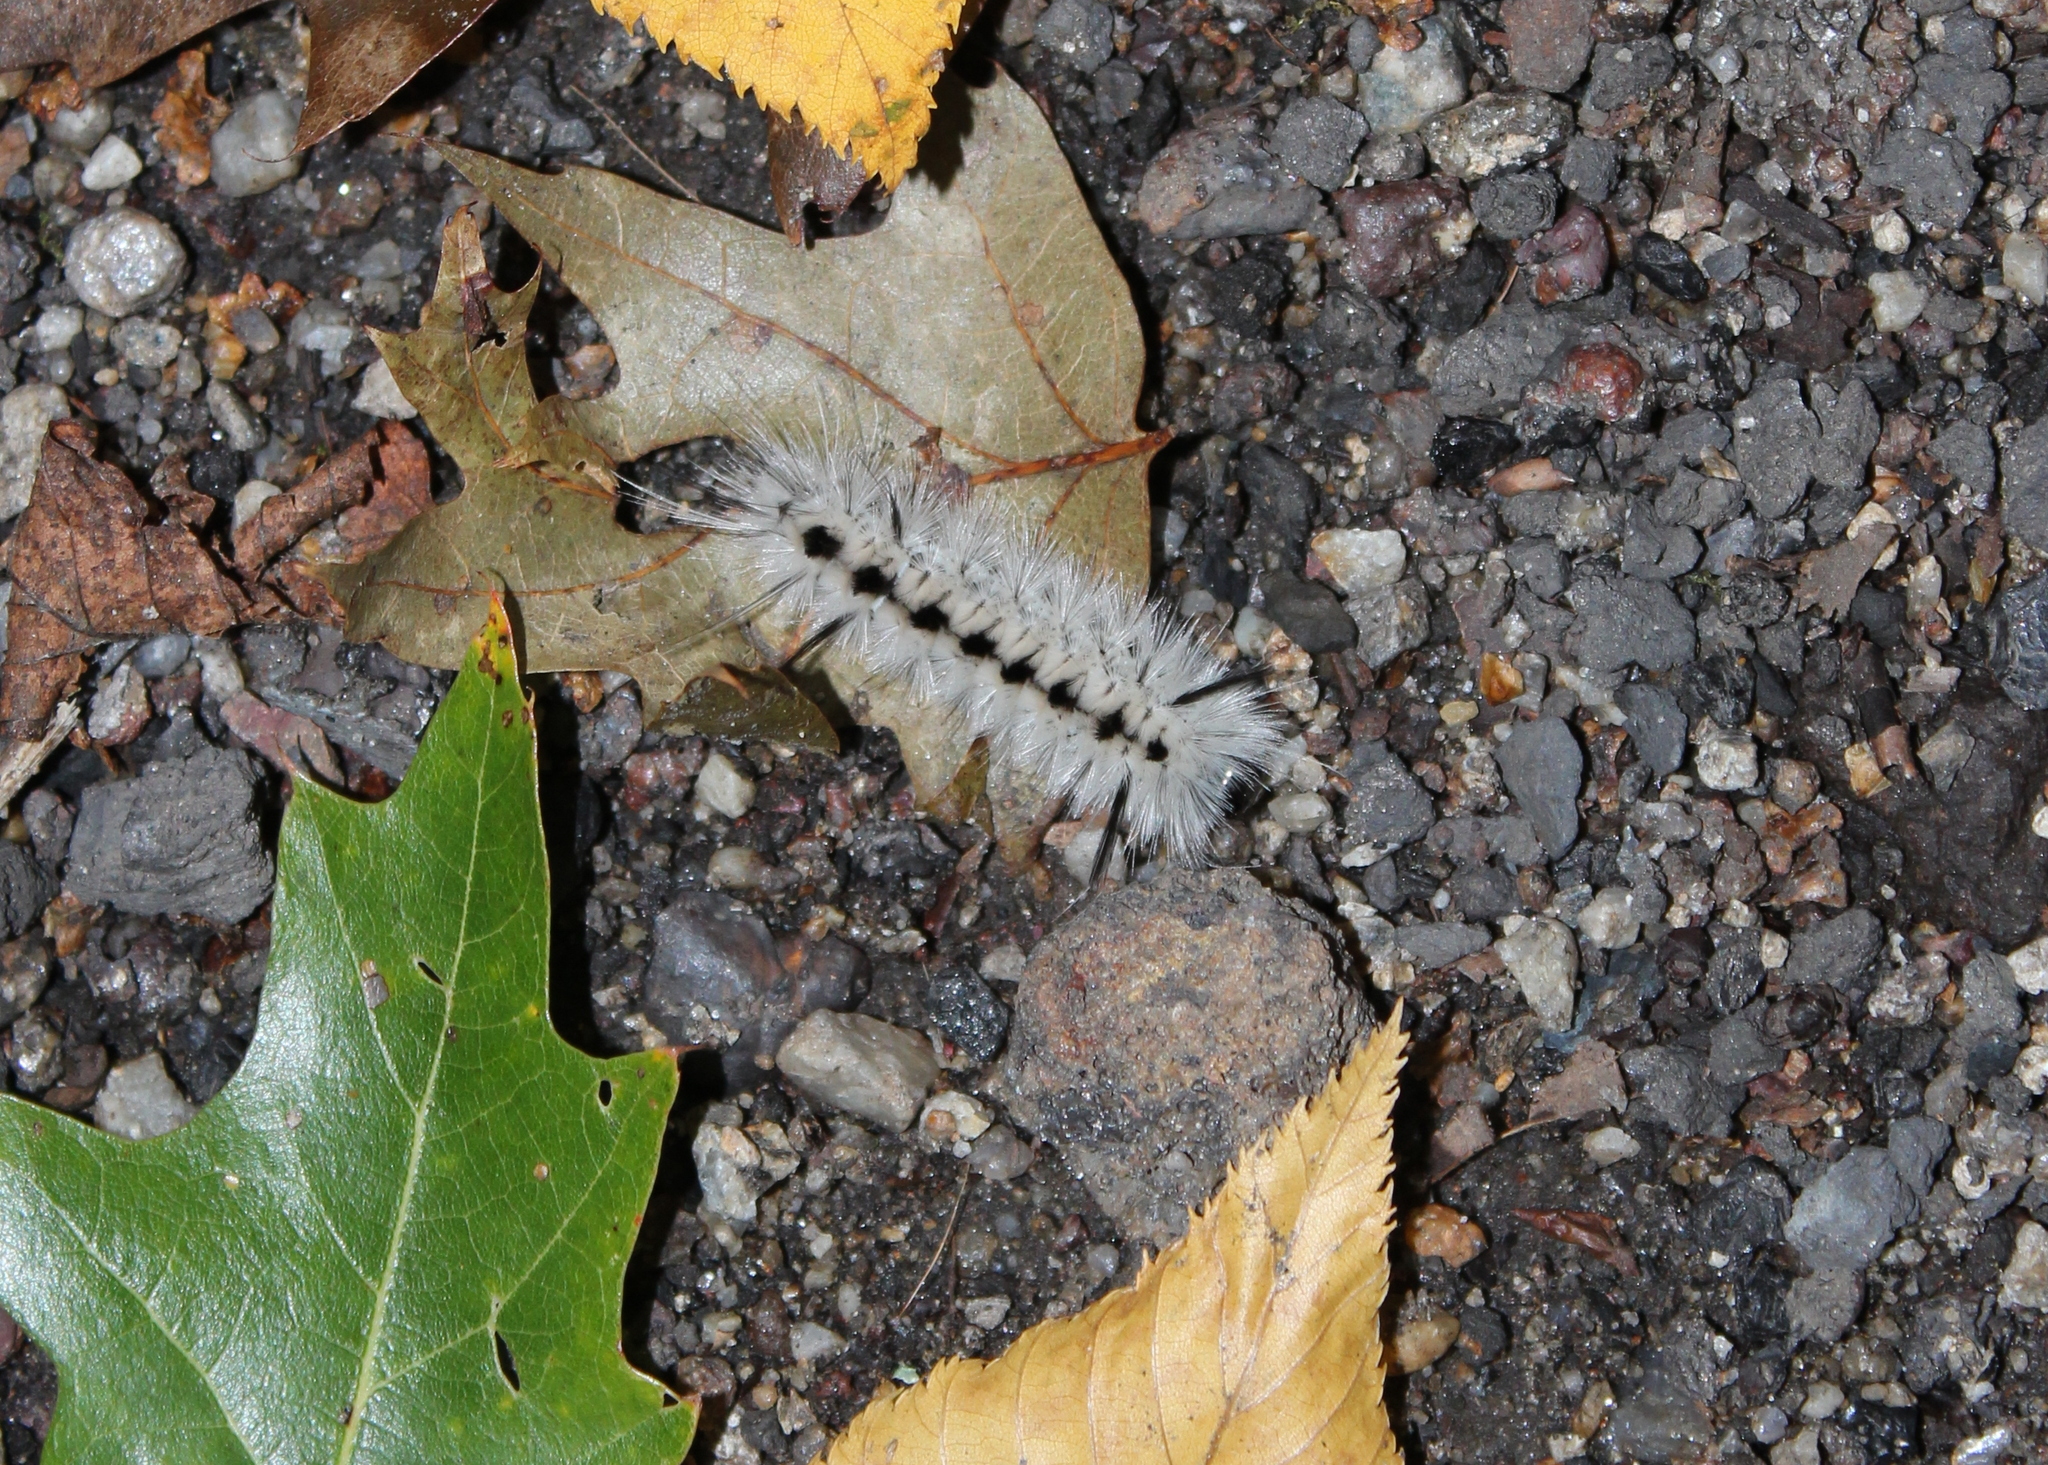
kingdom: Animalia
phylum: Arthropoda
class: Insecta
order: Lepidoptera
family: Erebidae
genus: Lophocampa
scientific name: Lophocampa caryae
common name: Hickory tussock moth
